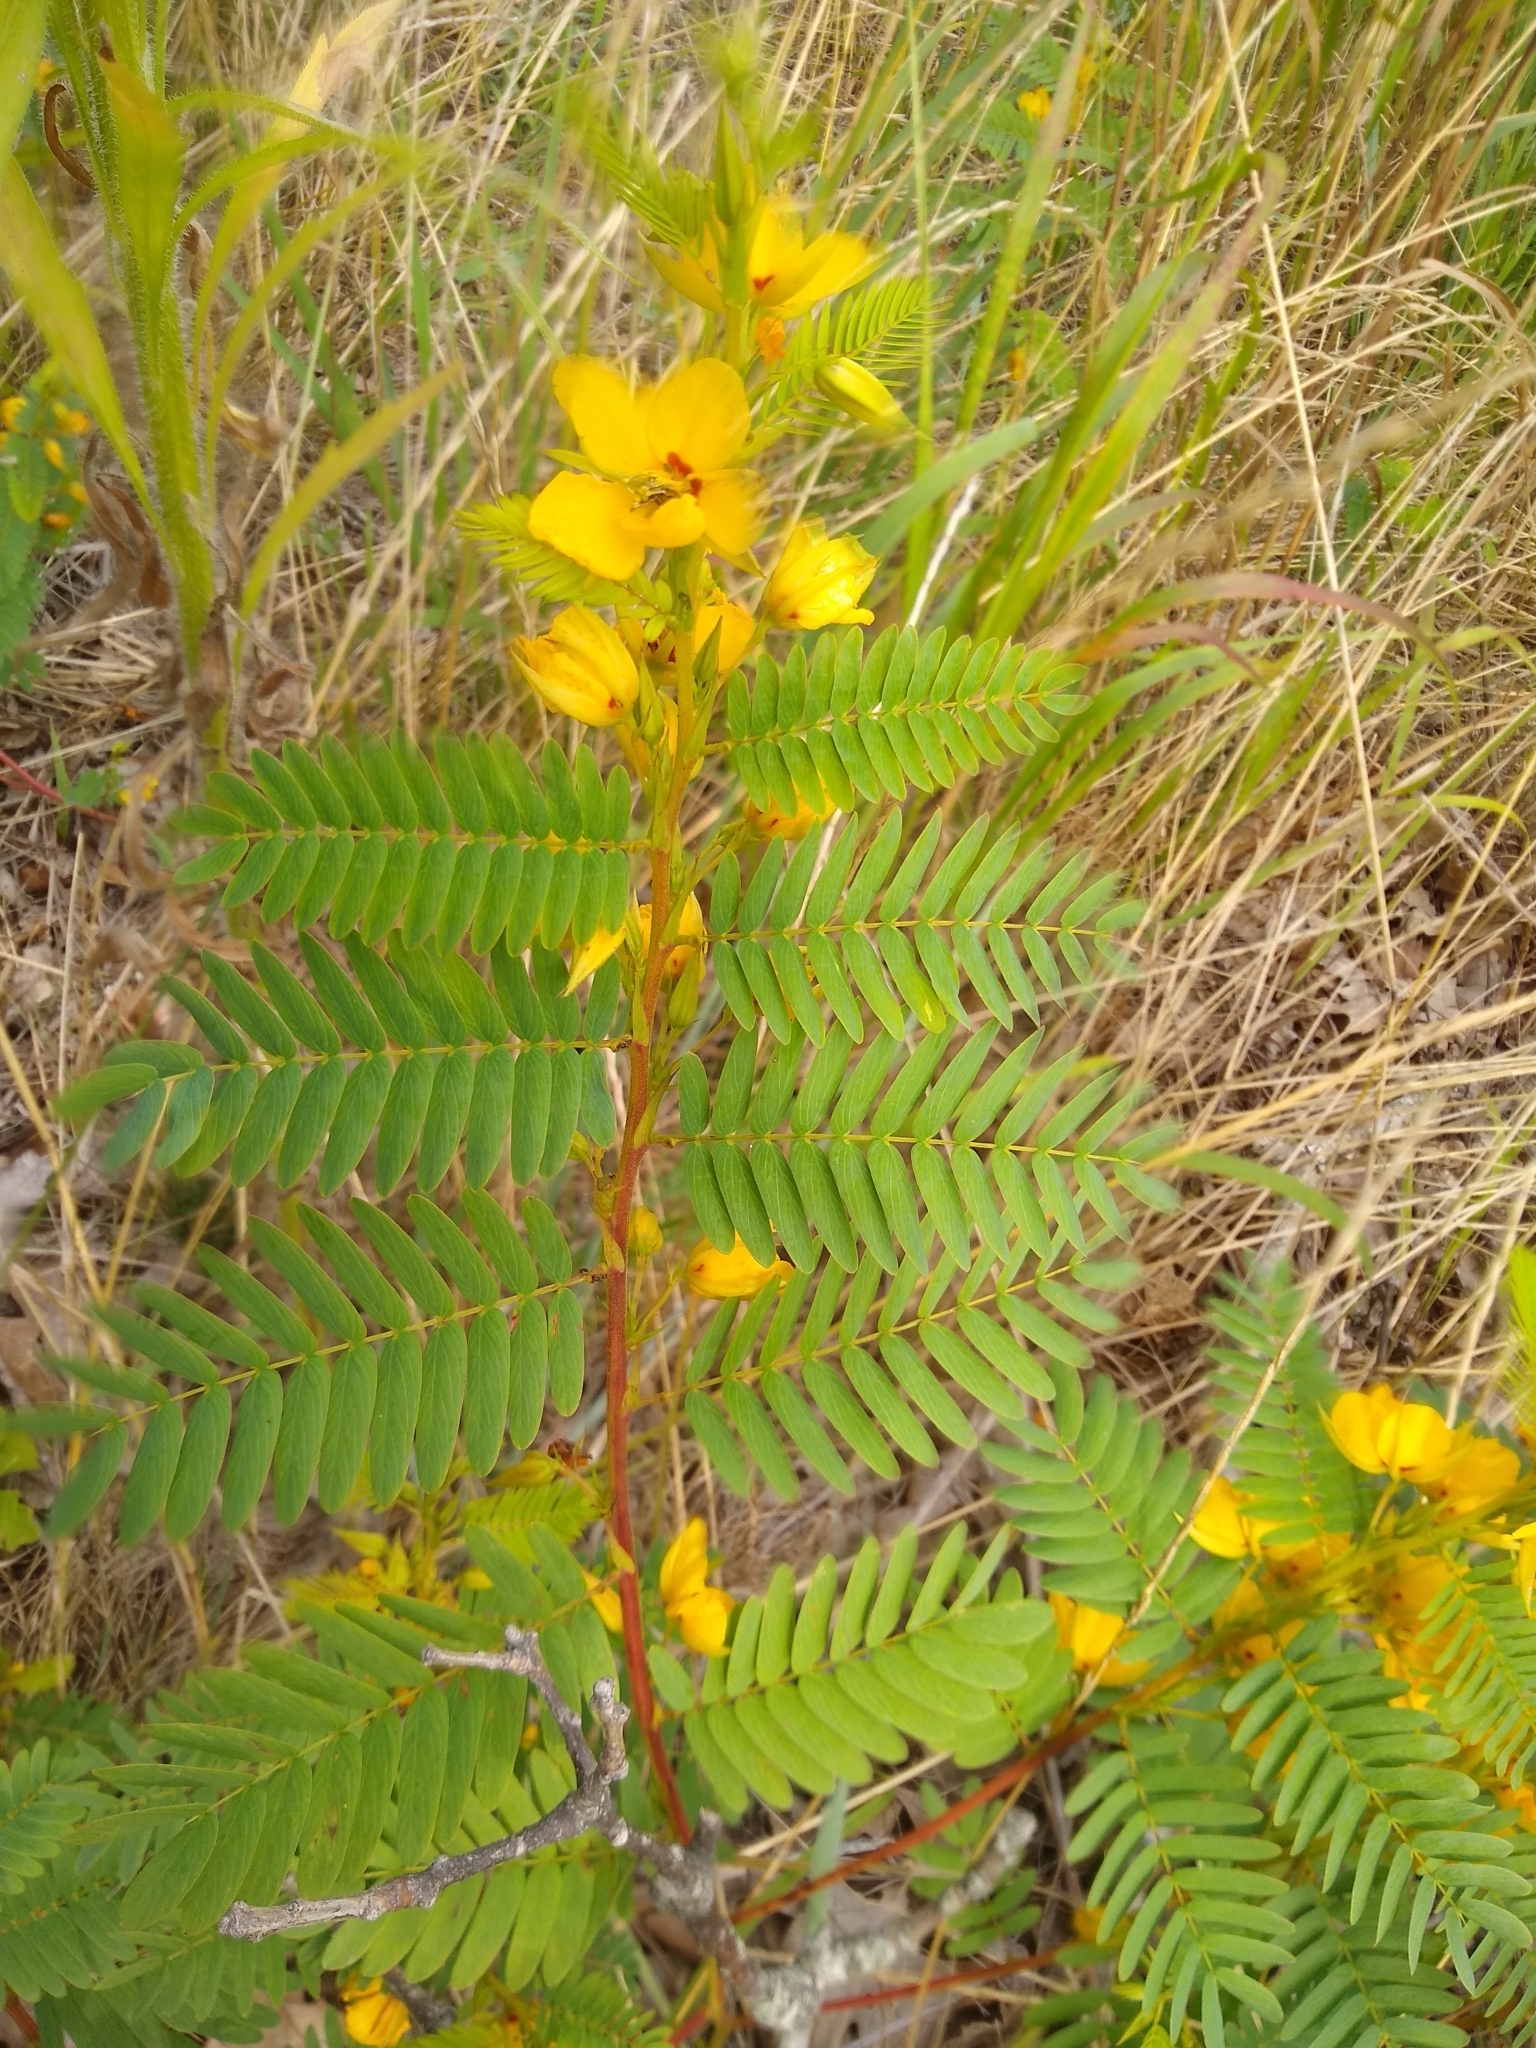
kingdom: Plantae
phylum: Tracheophyta
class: Magnoliopsida
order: Fabales
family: Fabaceae
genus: Chamaecrista
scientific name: Chamaecrista fasciculata
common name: Golden cassia
